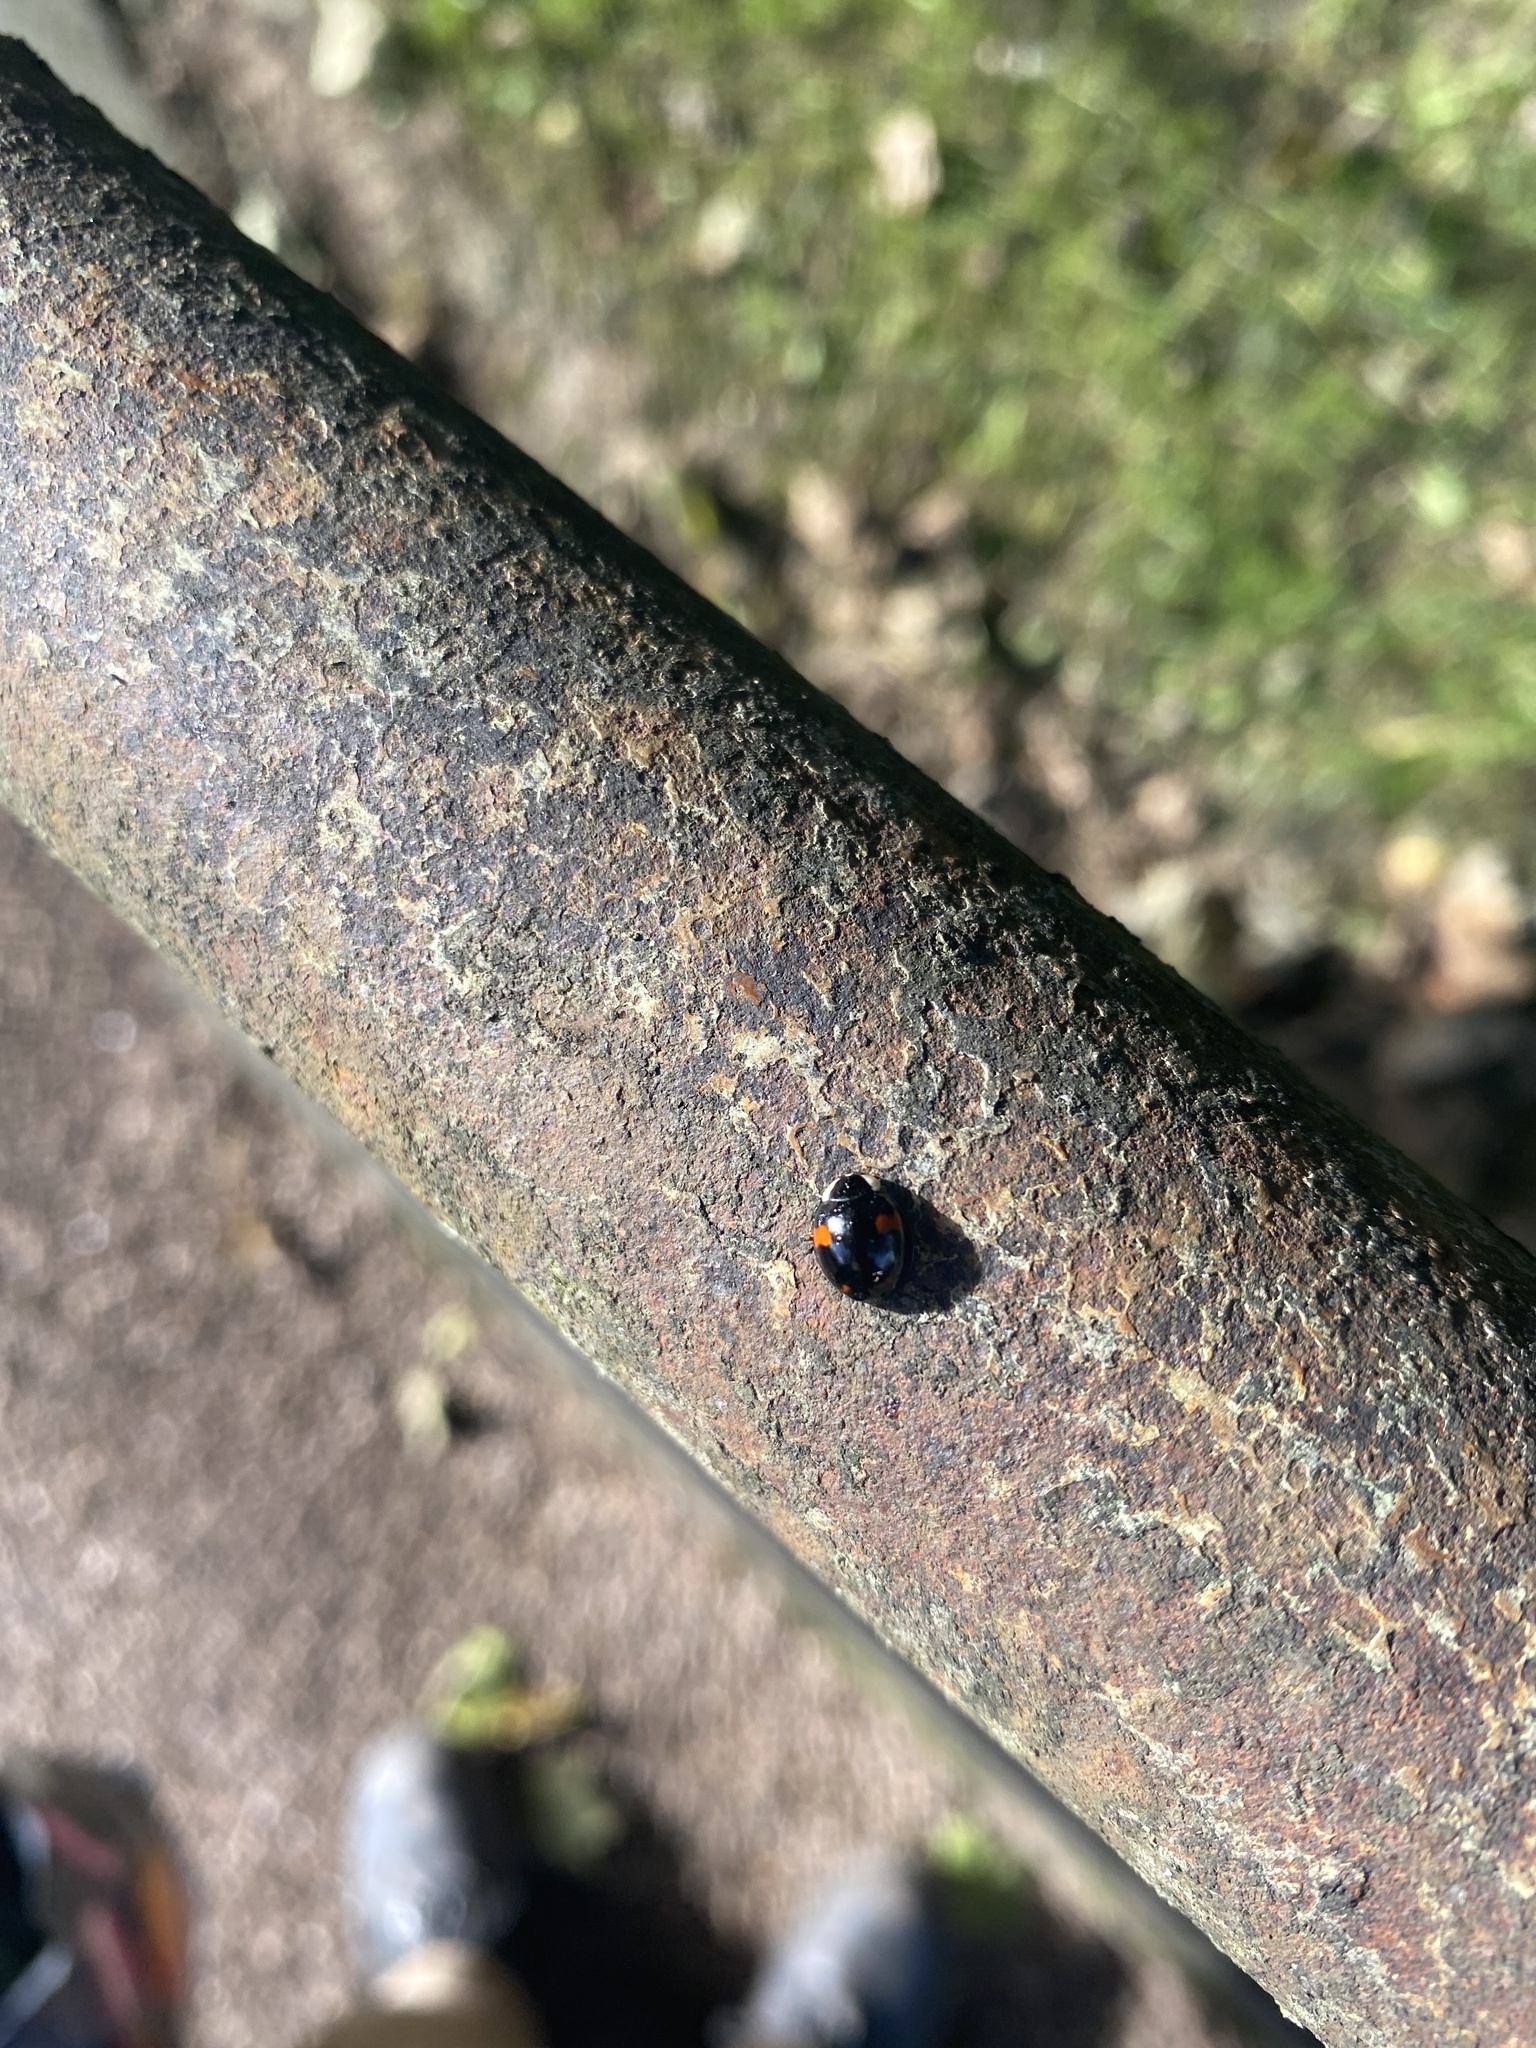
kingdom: Animalia
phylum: Arthropoda
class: Insecta
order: Coleoptera
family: Coccinellidae
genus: Harmonia
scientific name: Harmonia axyridis
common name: Harlequin ladybird
